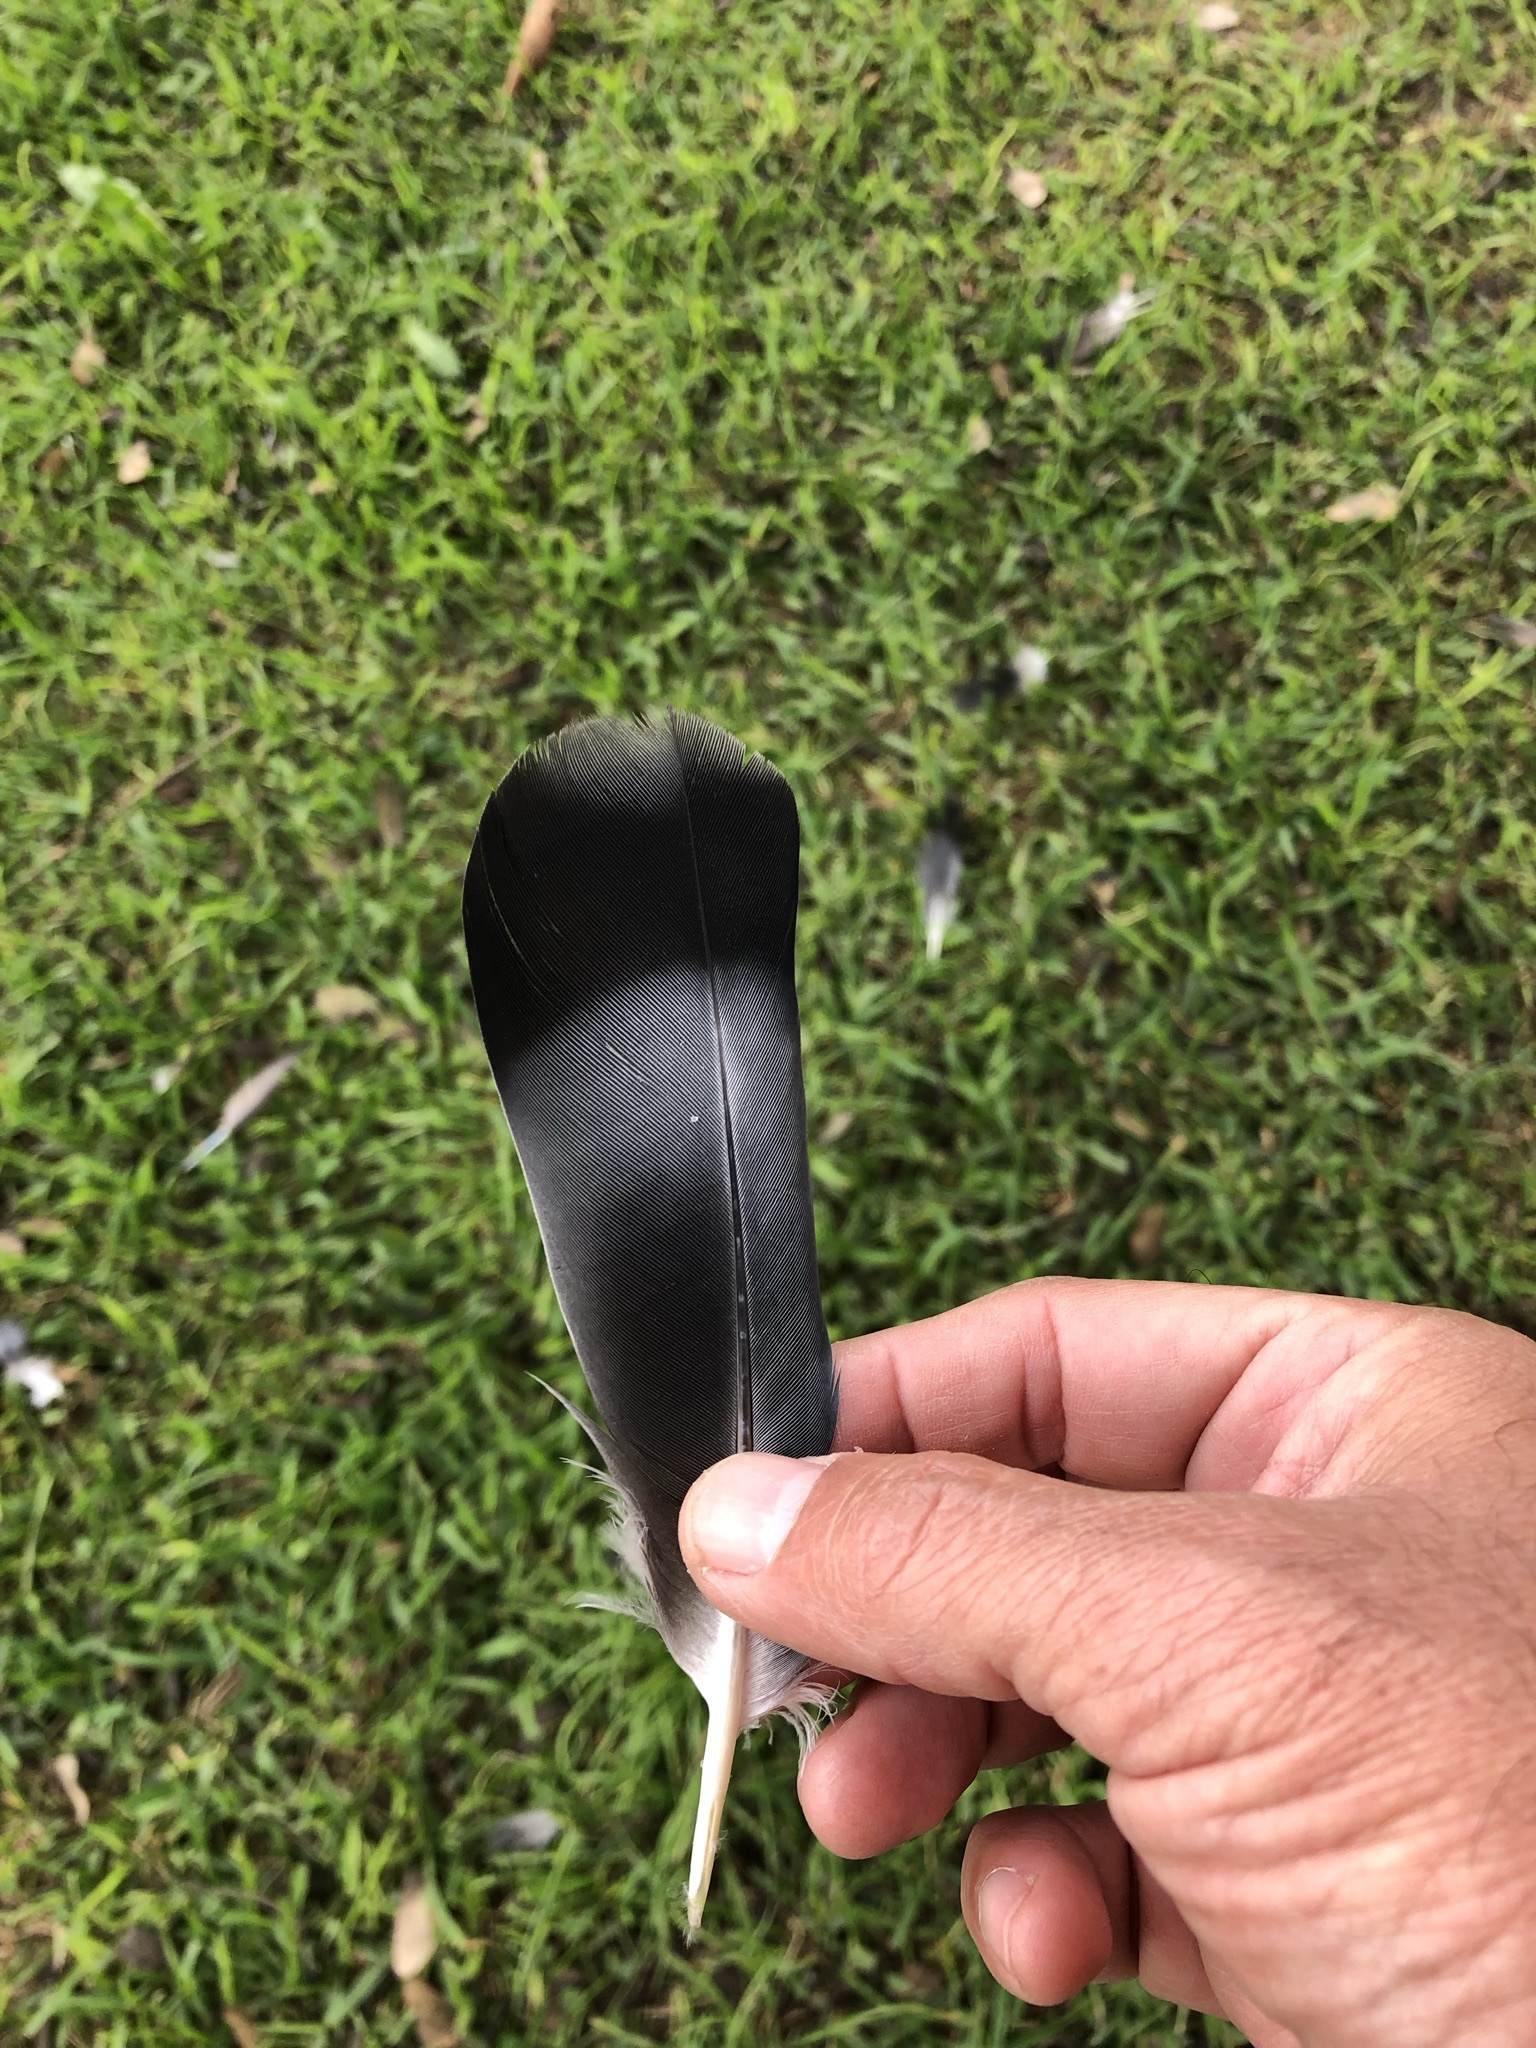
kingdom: Animalia
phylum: Chordata
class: Aves
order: Columbiformes
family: Columbidae
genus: Columba
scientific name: Columba livia
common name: Rock pigeon
